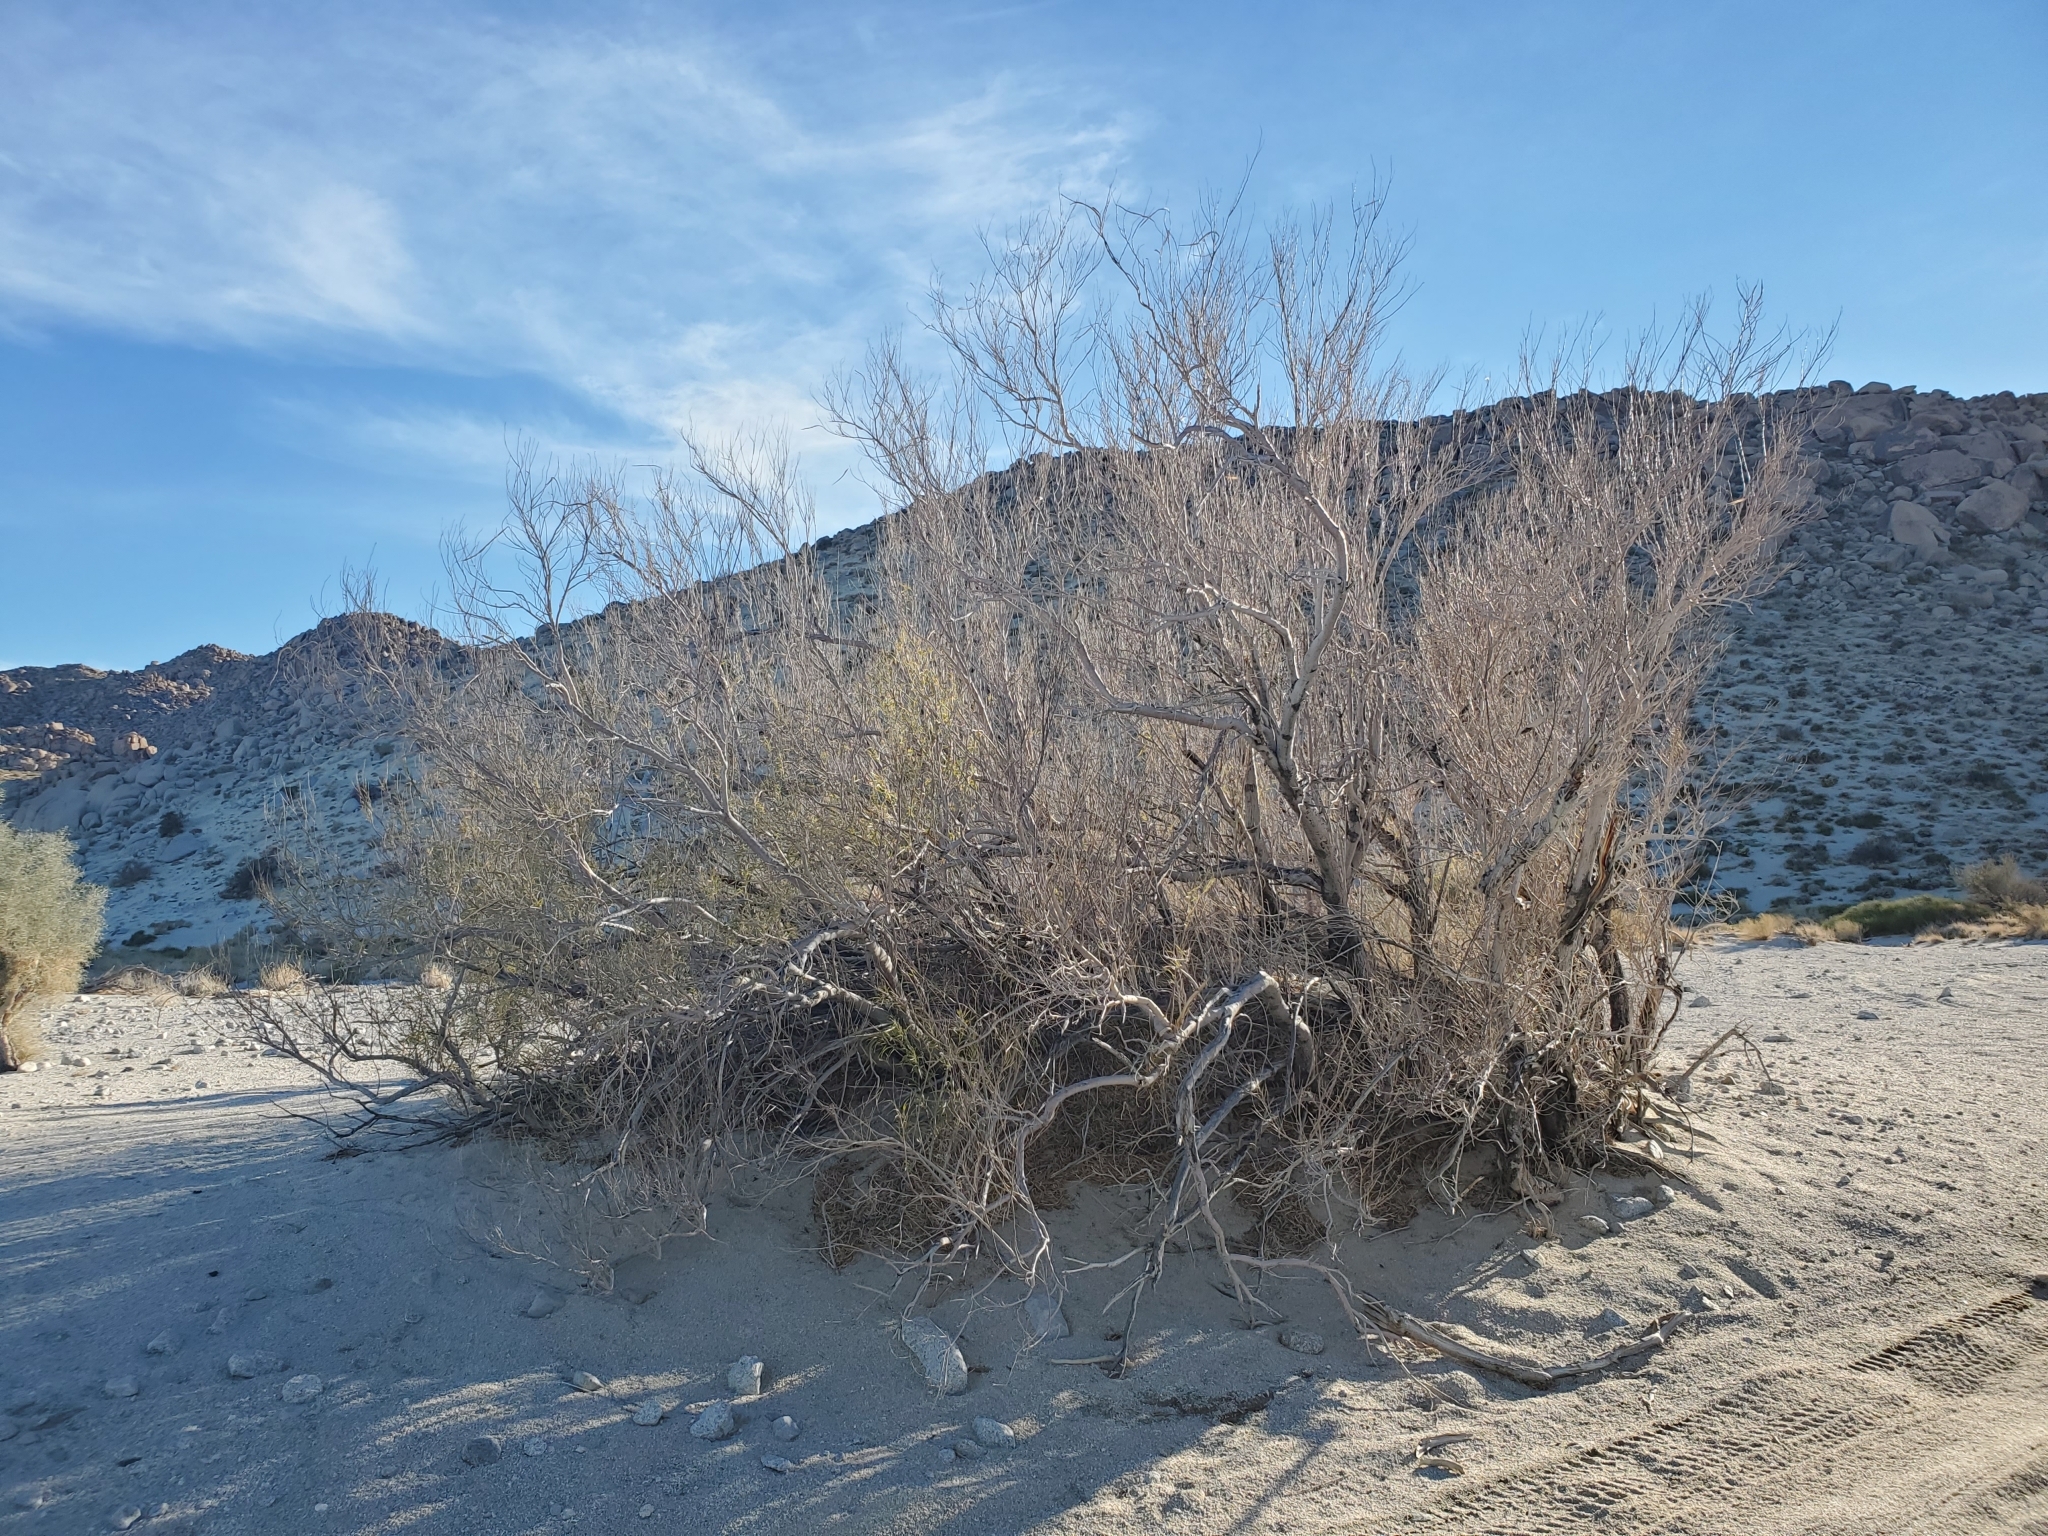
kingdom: Plantae
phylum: Tracheophyta
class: Magnoliopsida
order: Lamiales
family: Bignoniaceae
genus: Chilopsis
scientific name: Chilopsis linearis
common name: Desert-willow
